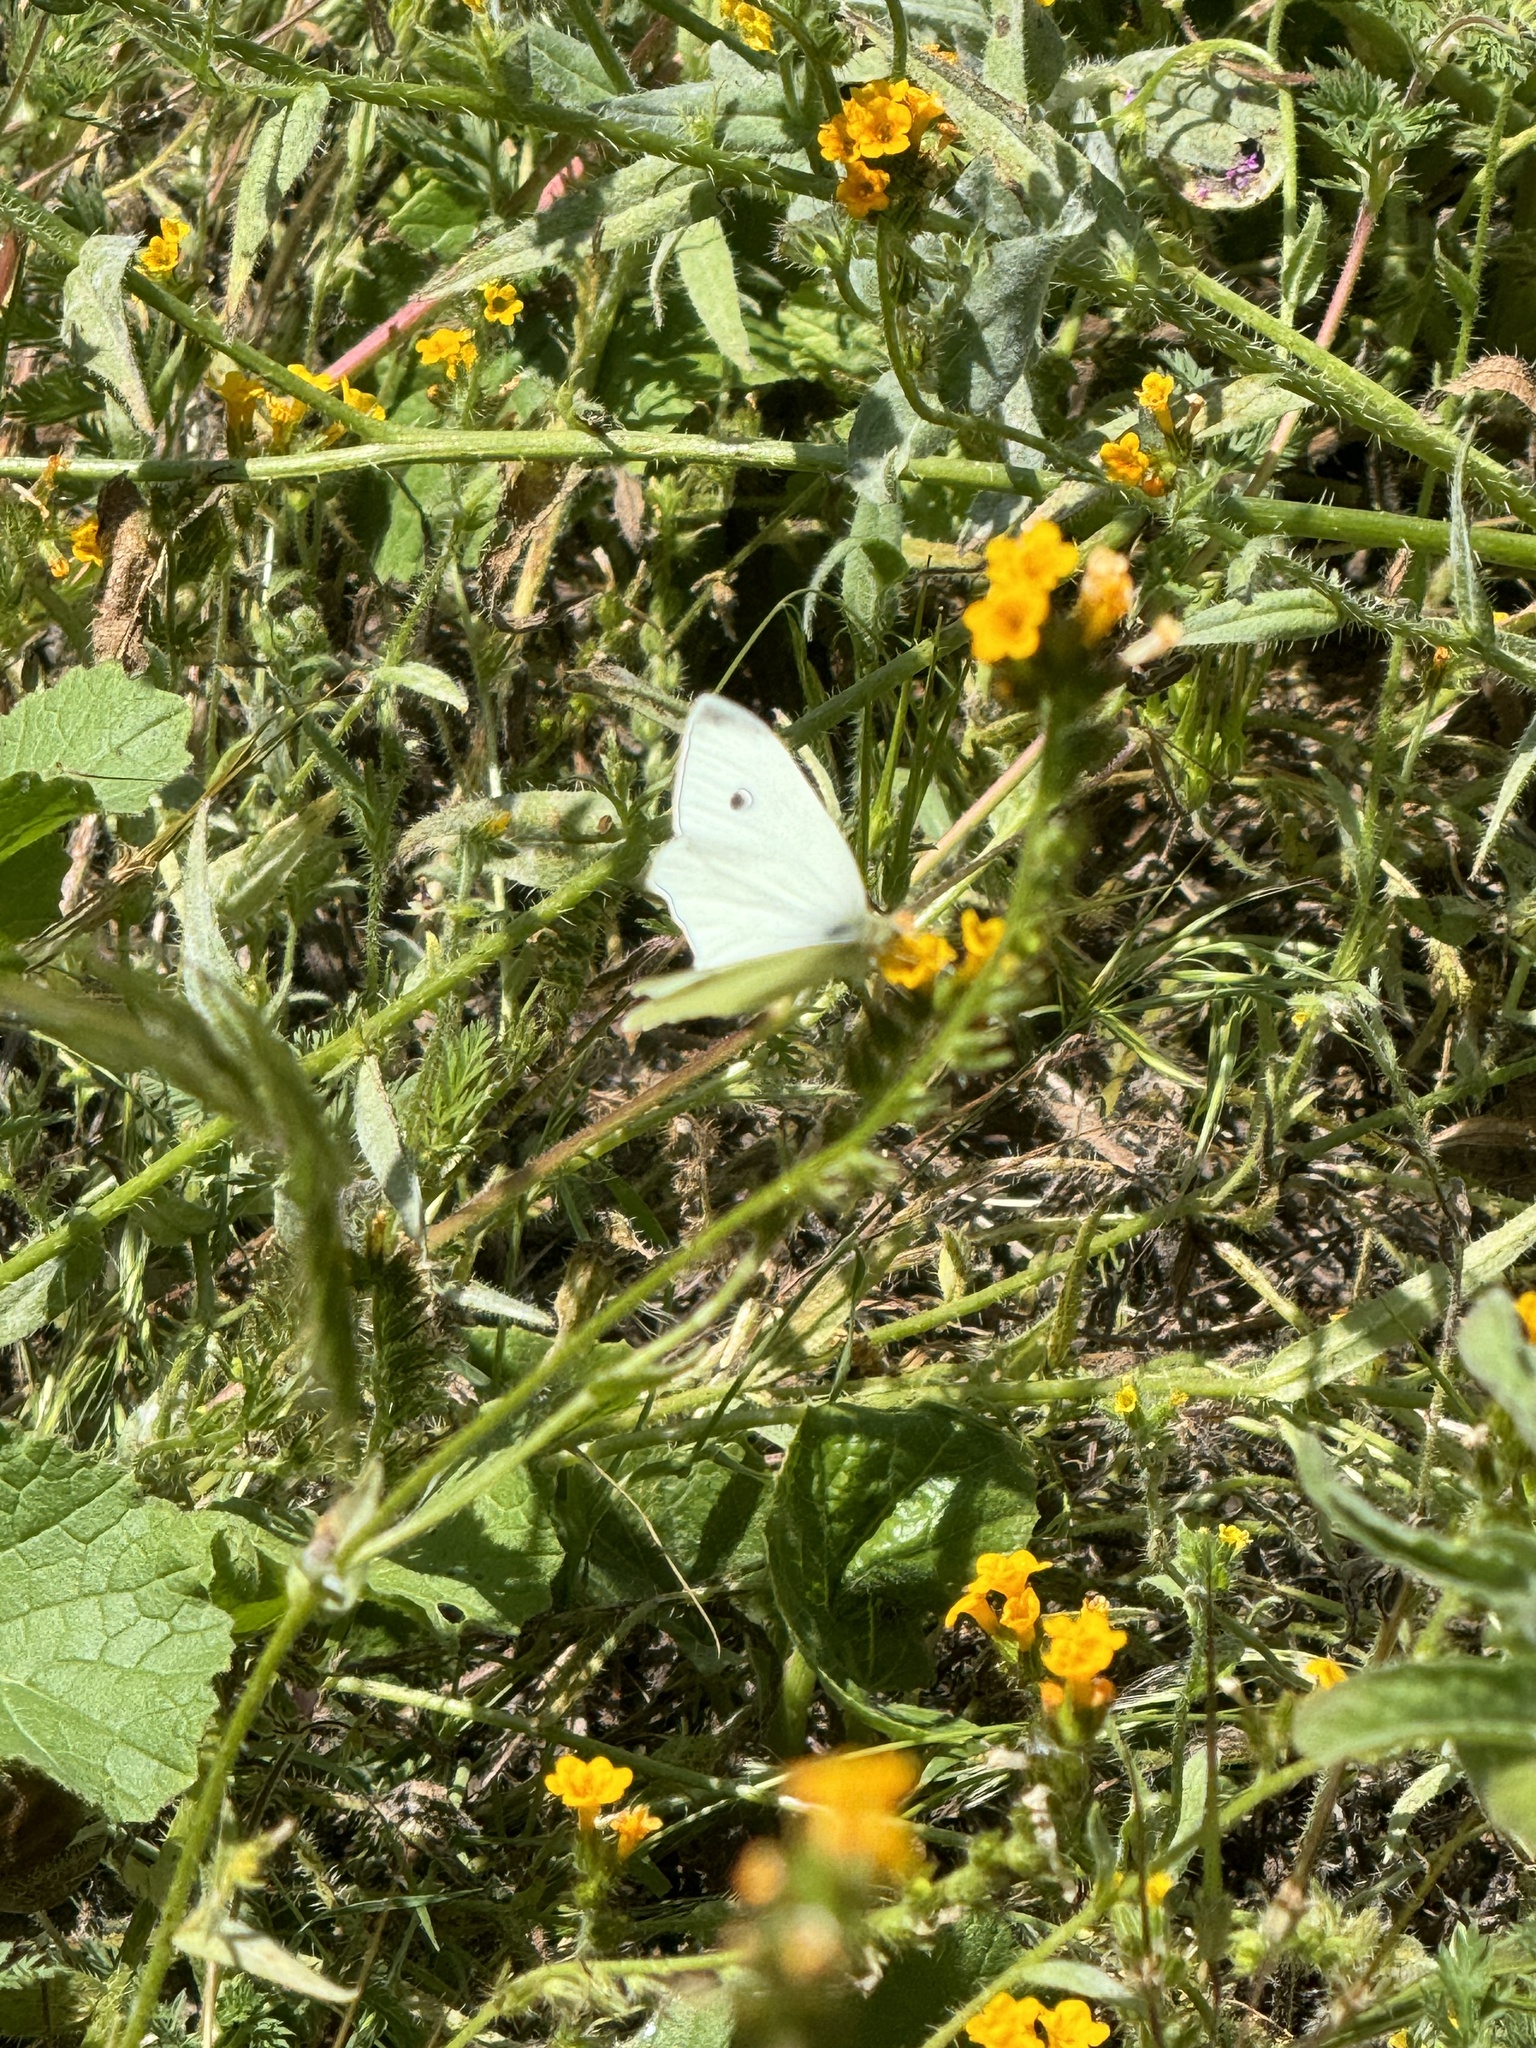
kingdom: Animalia
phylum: Arthropoda
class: Insecta
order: Lepidoptera
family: Pieridae
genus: Pieris
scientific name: Pieris rapae
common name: Small white
